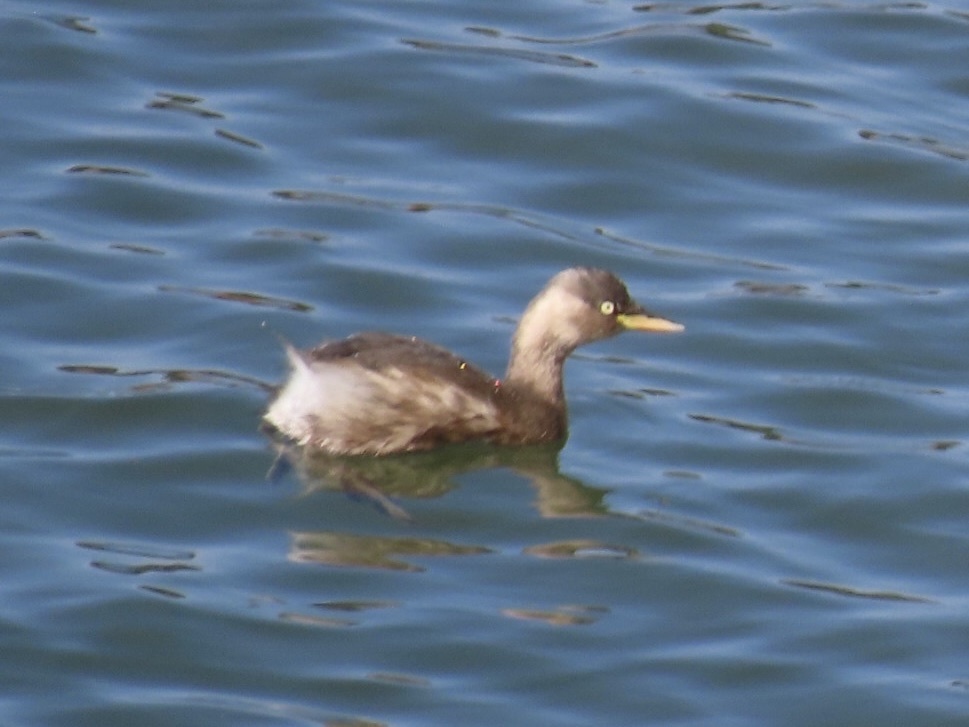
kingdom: Animalia
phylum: Chordata
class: Aves
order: Podicipediformes
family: Podicipedidae
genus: Tachybaptus
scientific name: Tachybaptus ruficollis
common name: Little grebe
